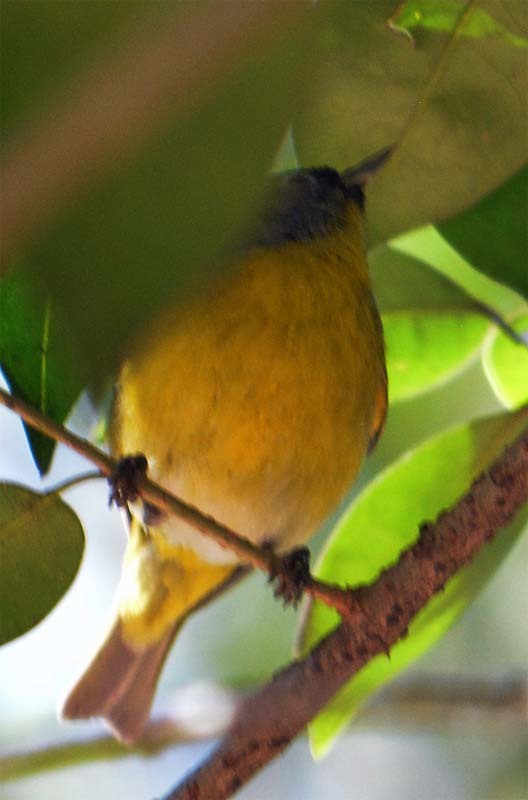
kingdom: Animalia
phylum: Chordata
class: Aves
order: Passeriformes
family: Parulidae
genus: Leiothlypis
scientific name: Leiothlypis ruficapilla
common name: Nashville warbler
